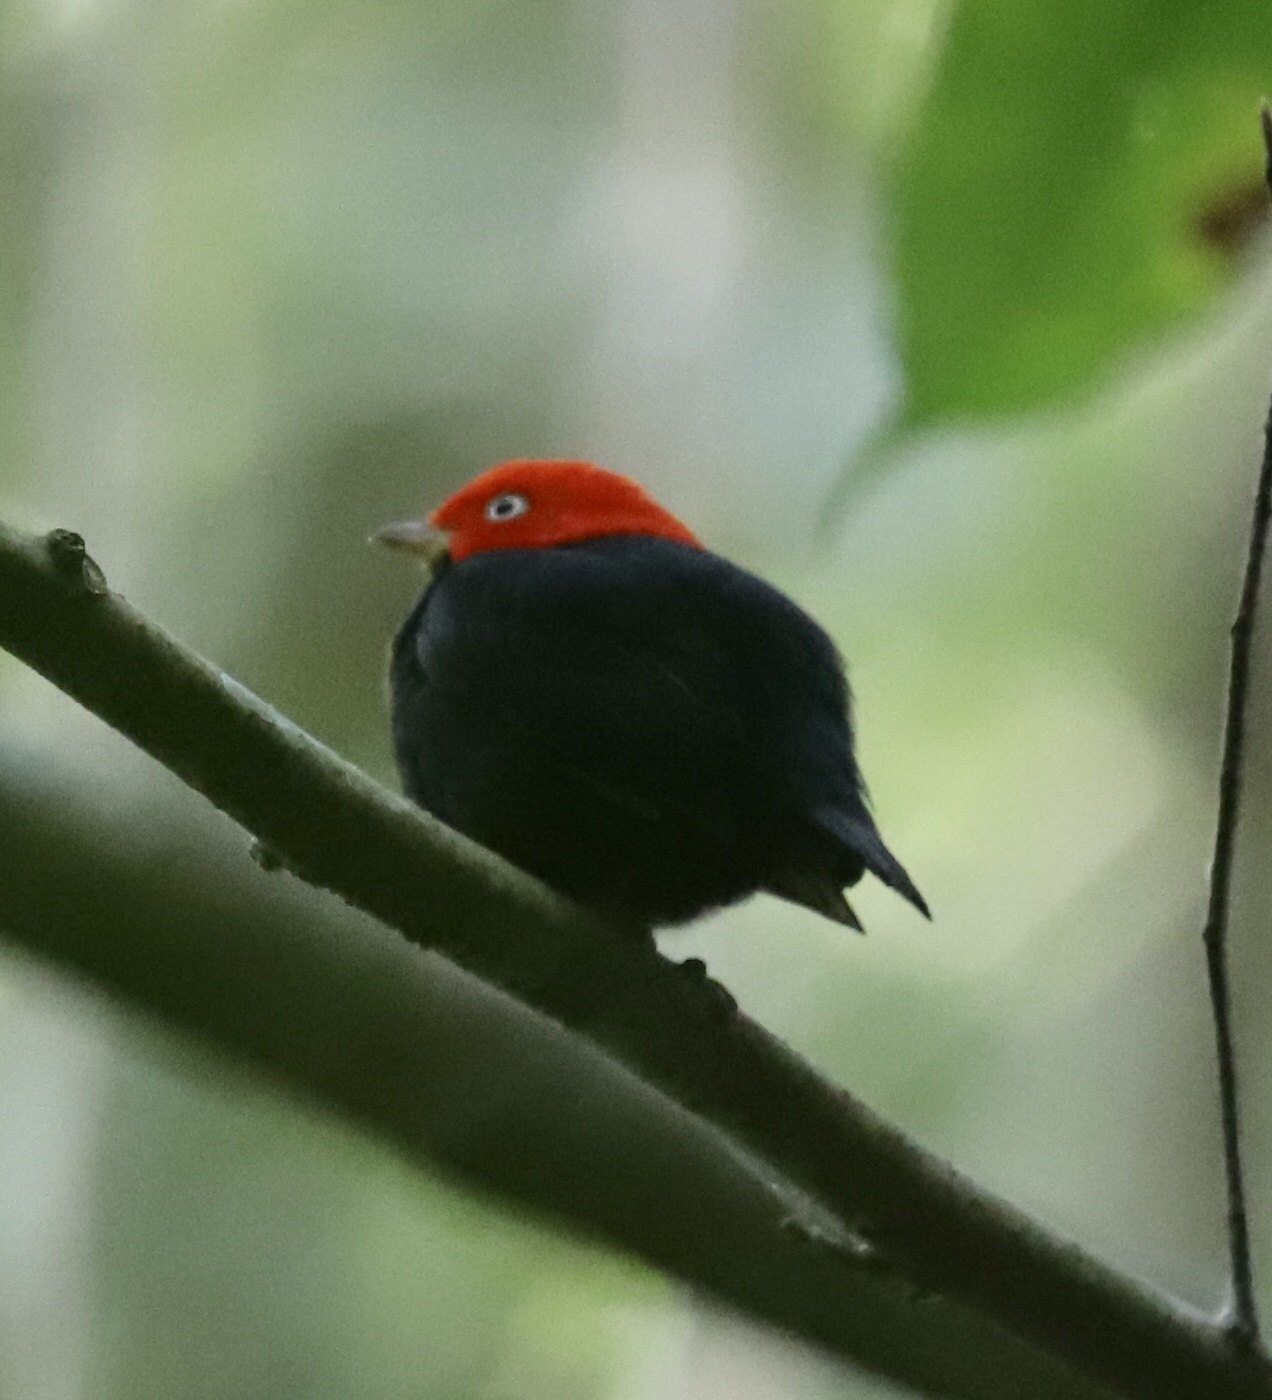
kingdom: Animalia
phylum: Chordata
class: Aves
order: Passeriformes
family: Pipridae
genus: Pipra
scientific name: Pipra mentalis
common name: Red-capped manakin
